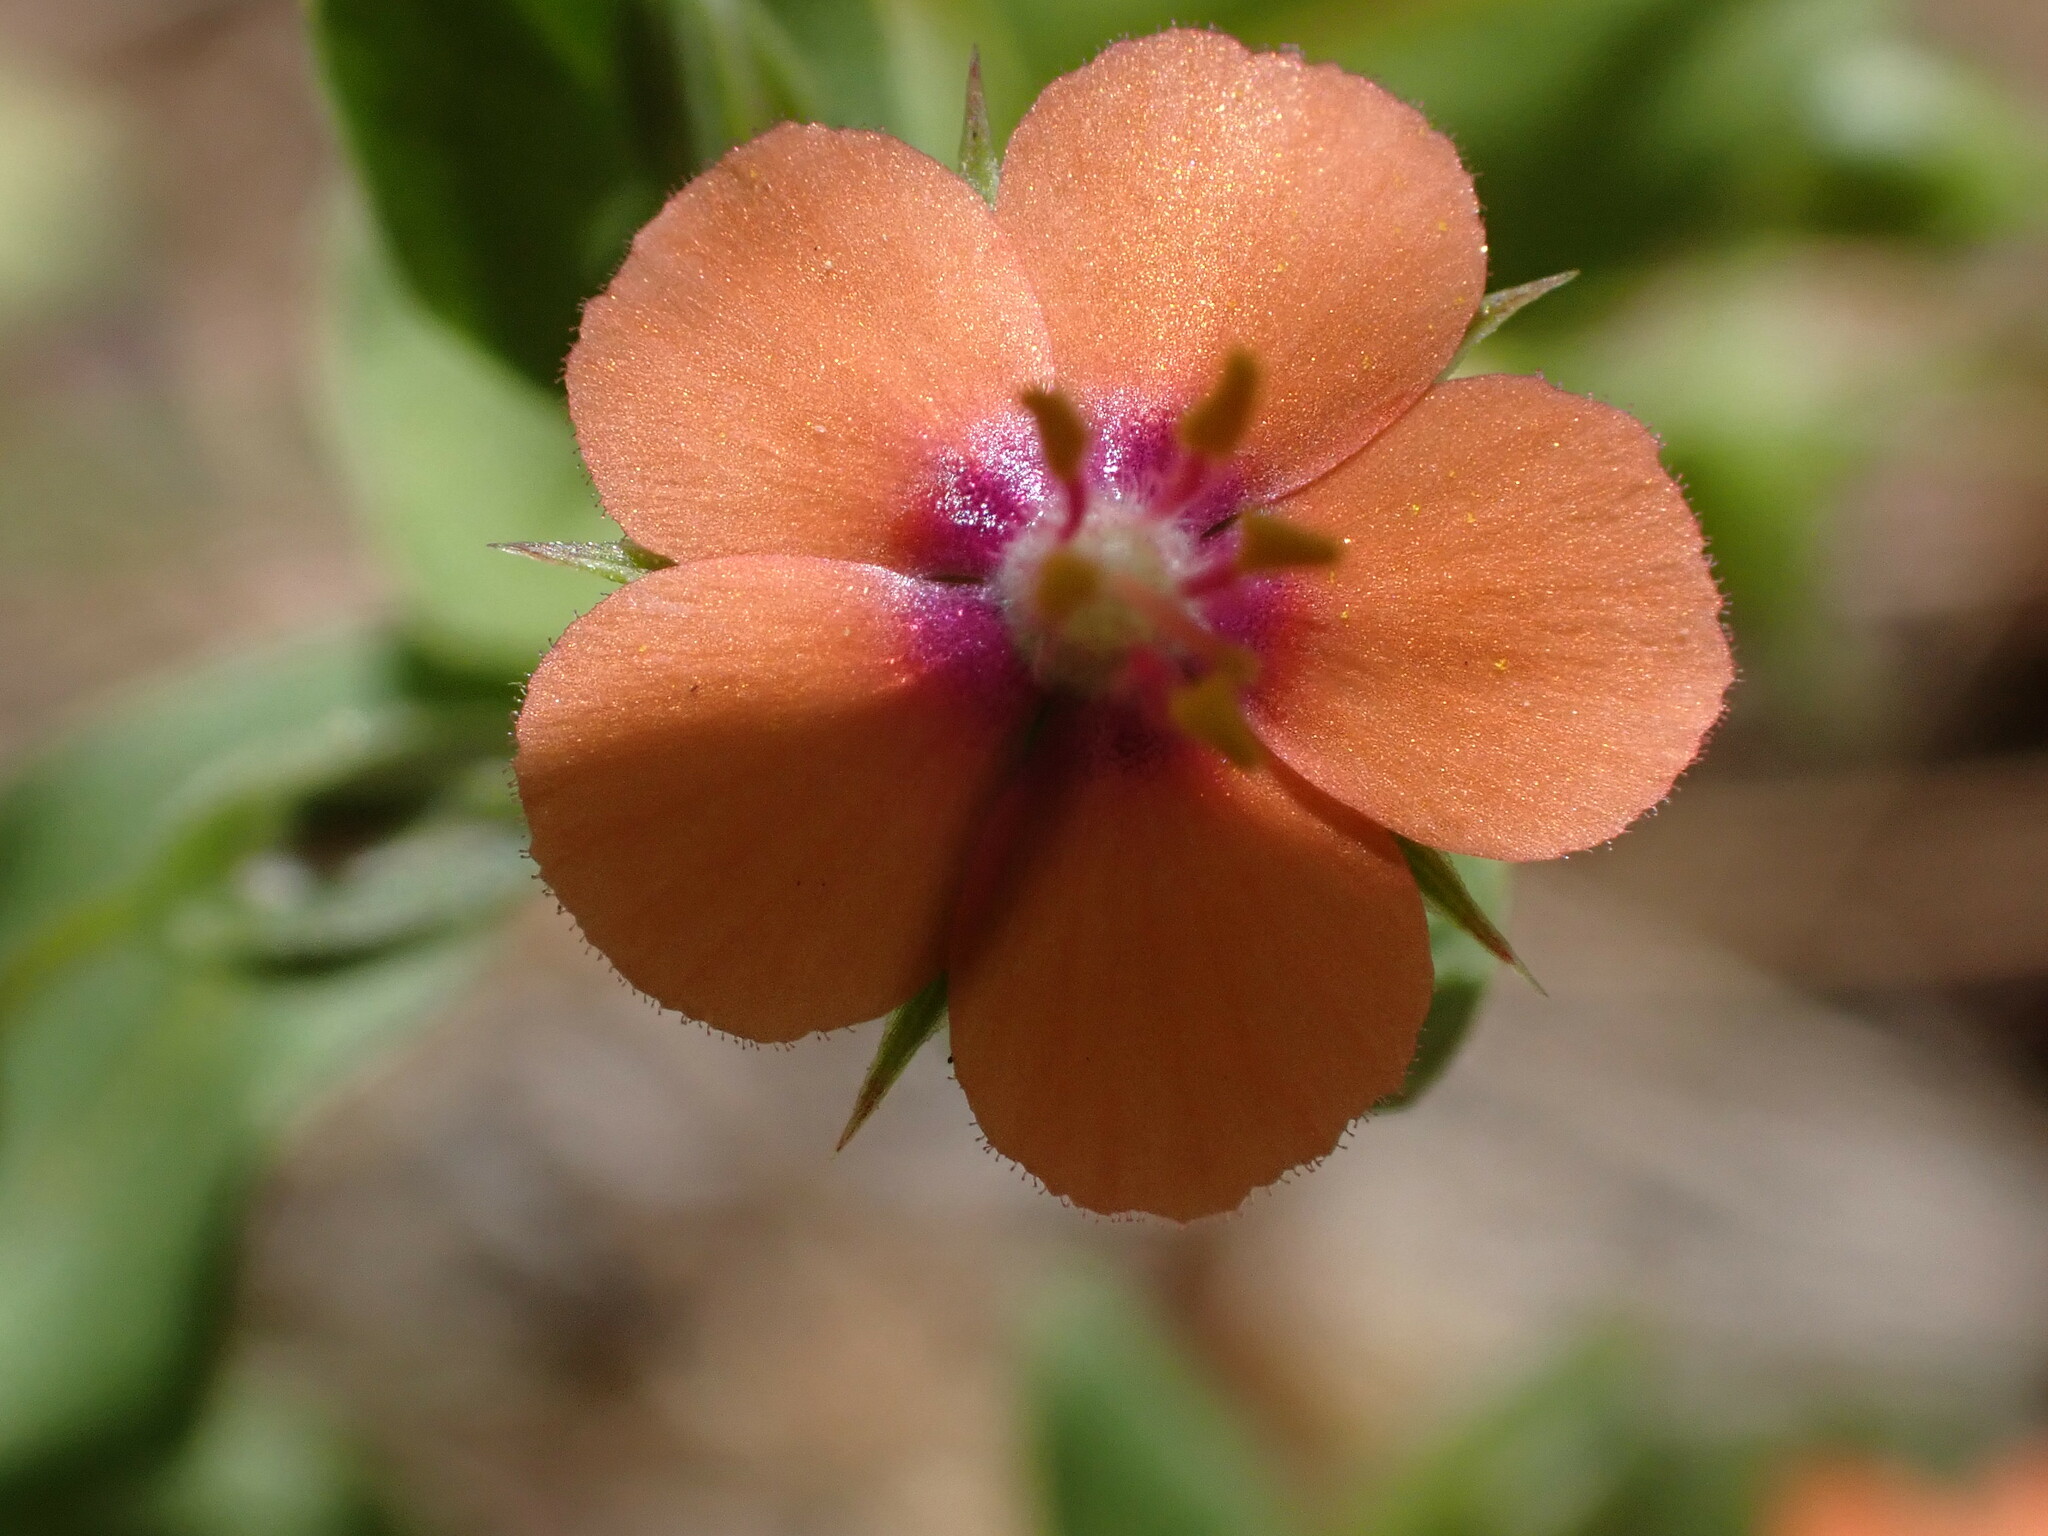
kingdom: Plantae
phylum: Tracheophyta
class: Magnoliopsida
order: Ericales
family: Primulaceae
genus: Lysimachia
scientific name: Lysimachia arvensis
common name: Scarlet pimpernel
